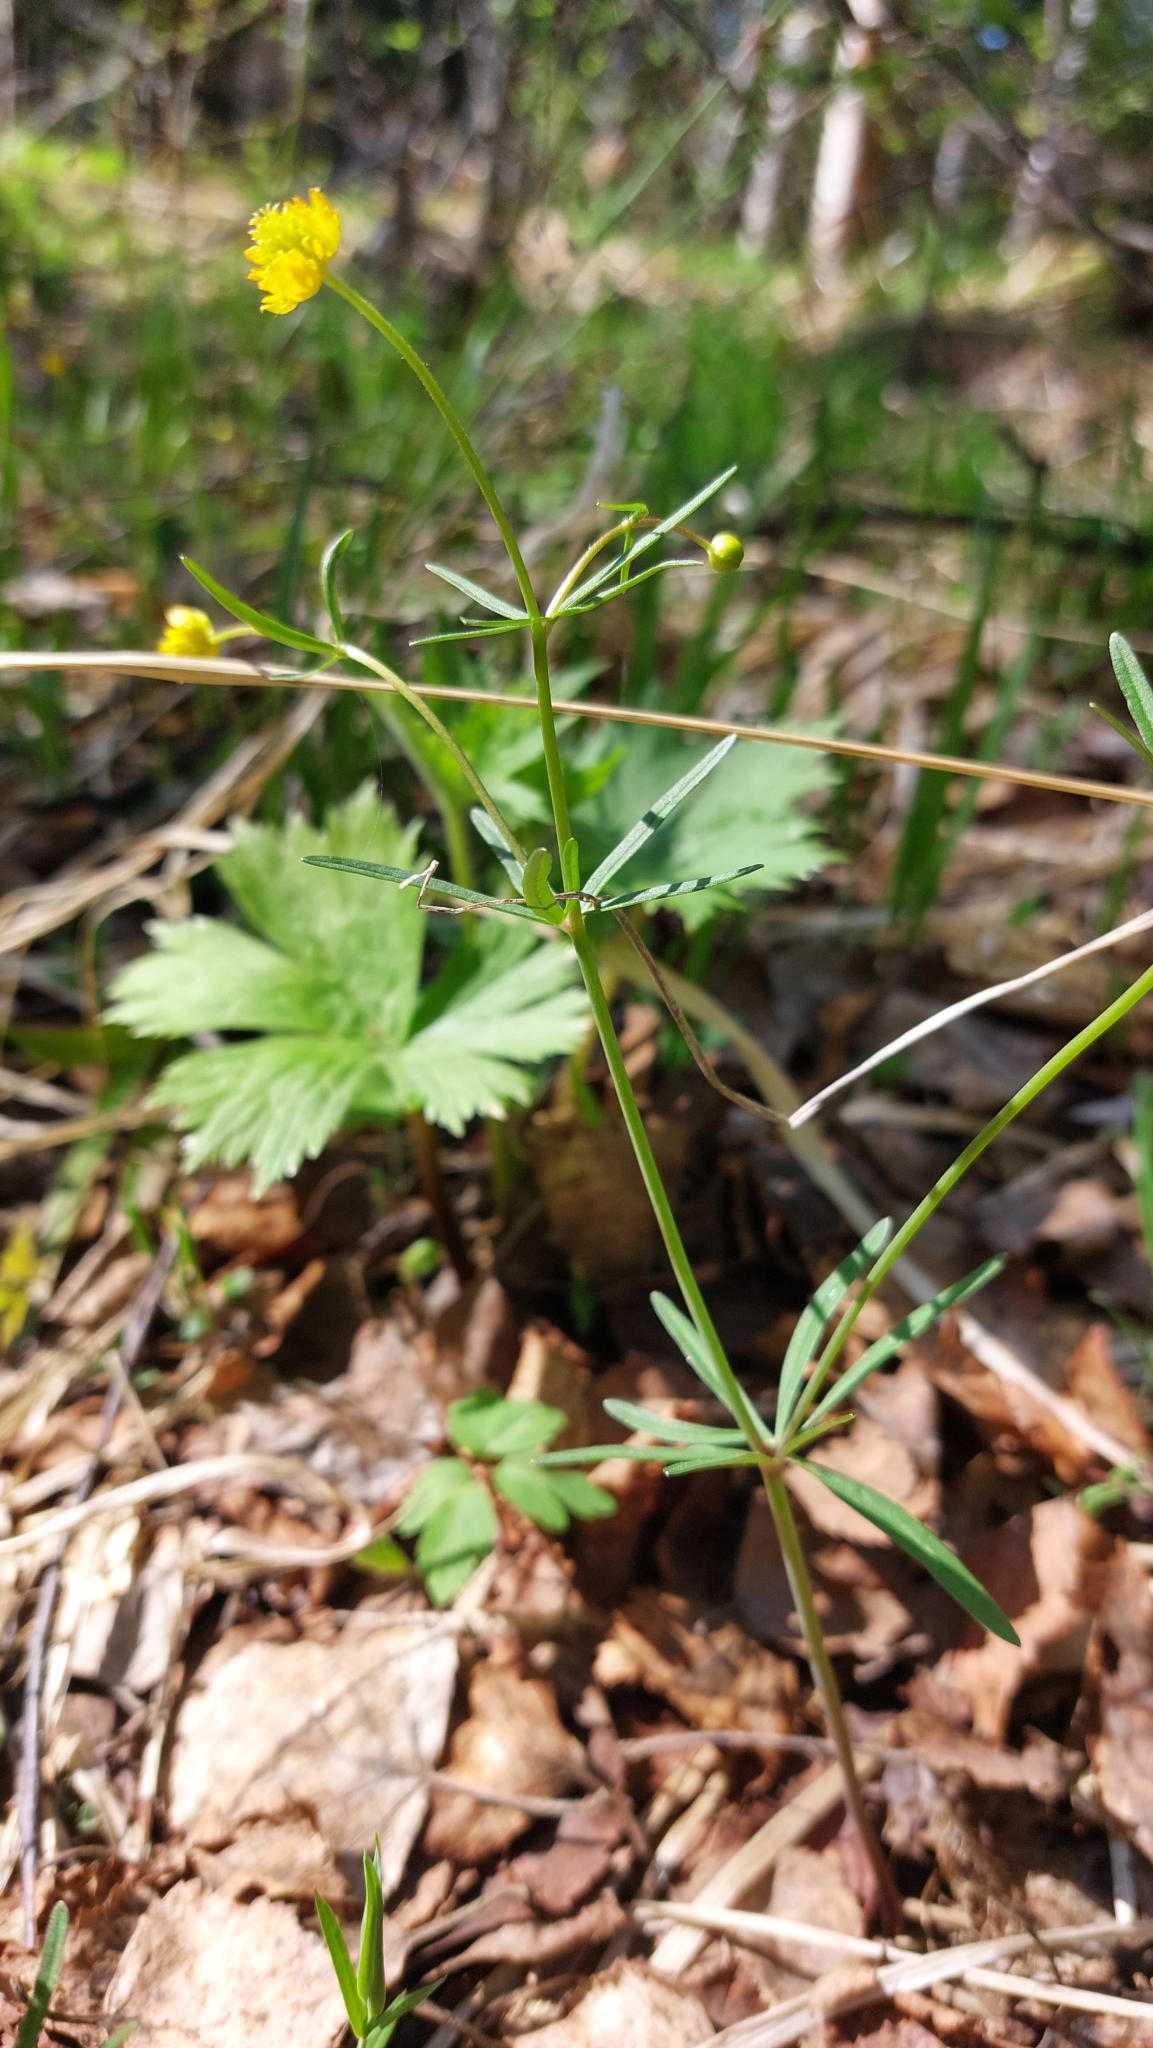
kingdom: Plantae
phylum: Tracheophyta
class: Magnoliopsida
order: Ranunculales
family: Ranunculaceae
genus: Ranunculus
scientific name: Ranunculus auricomus
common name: Goldilocks buttercup
